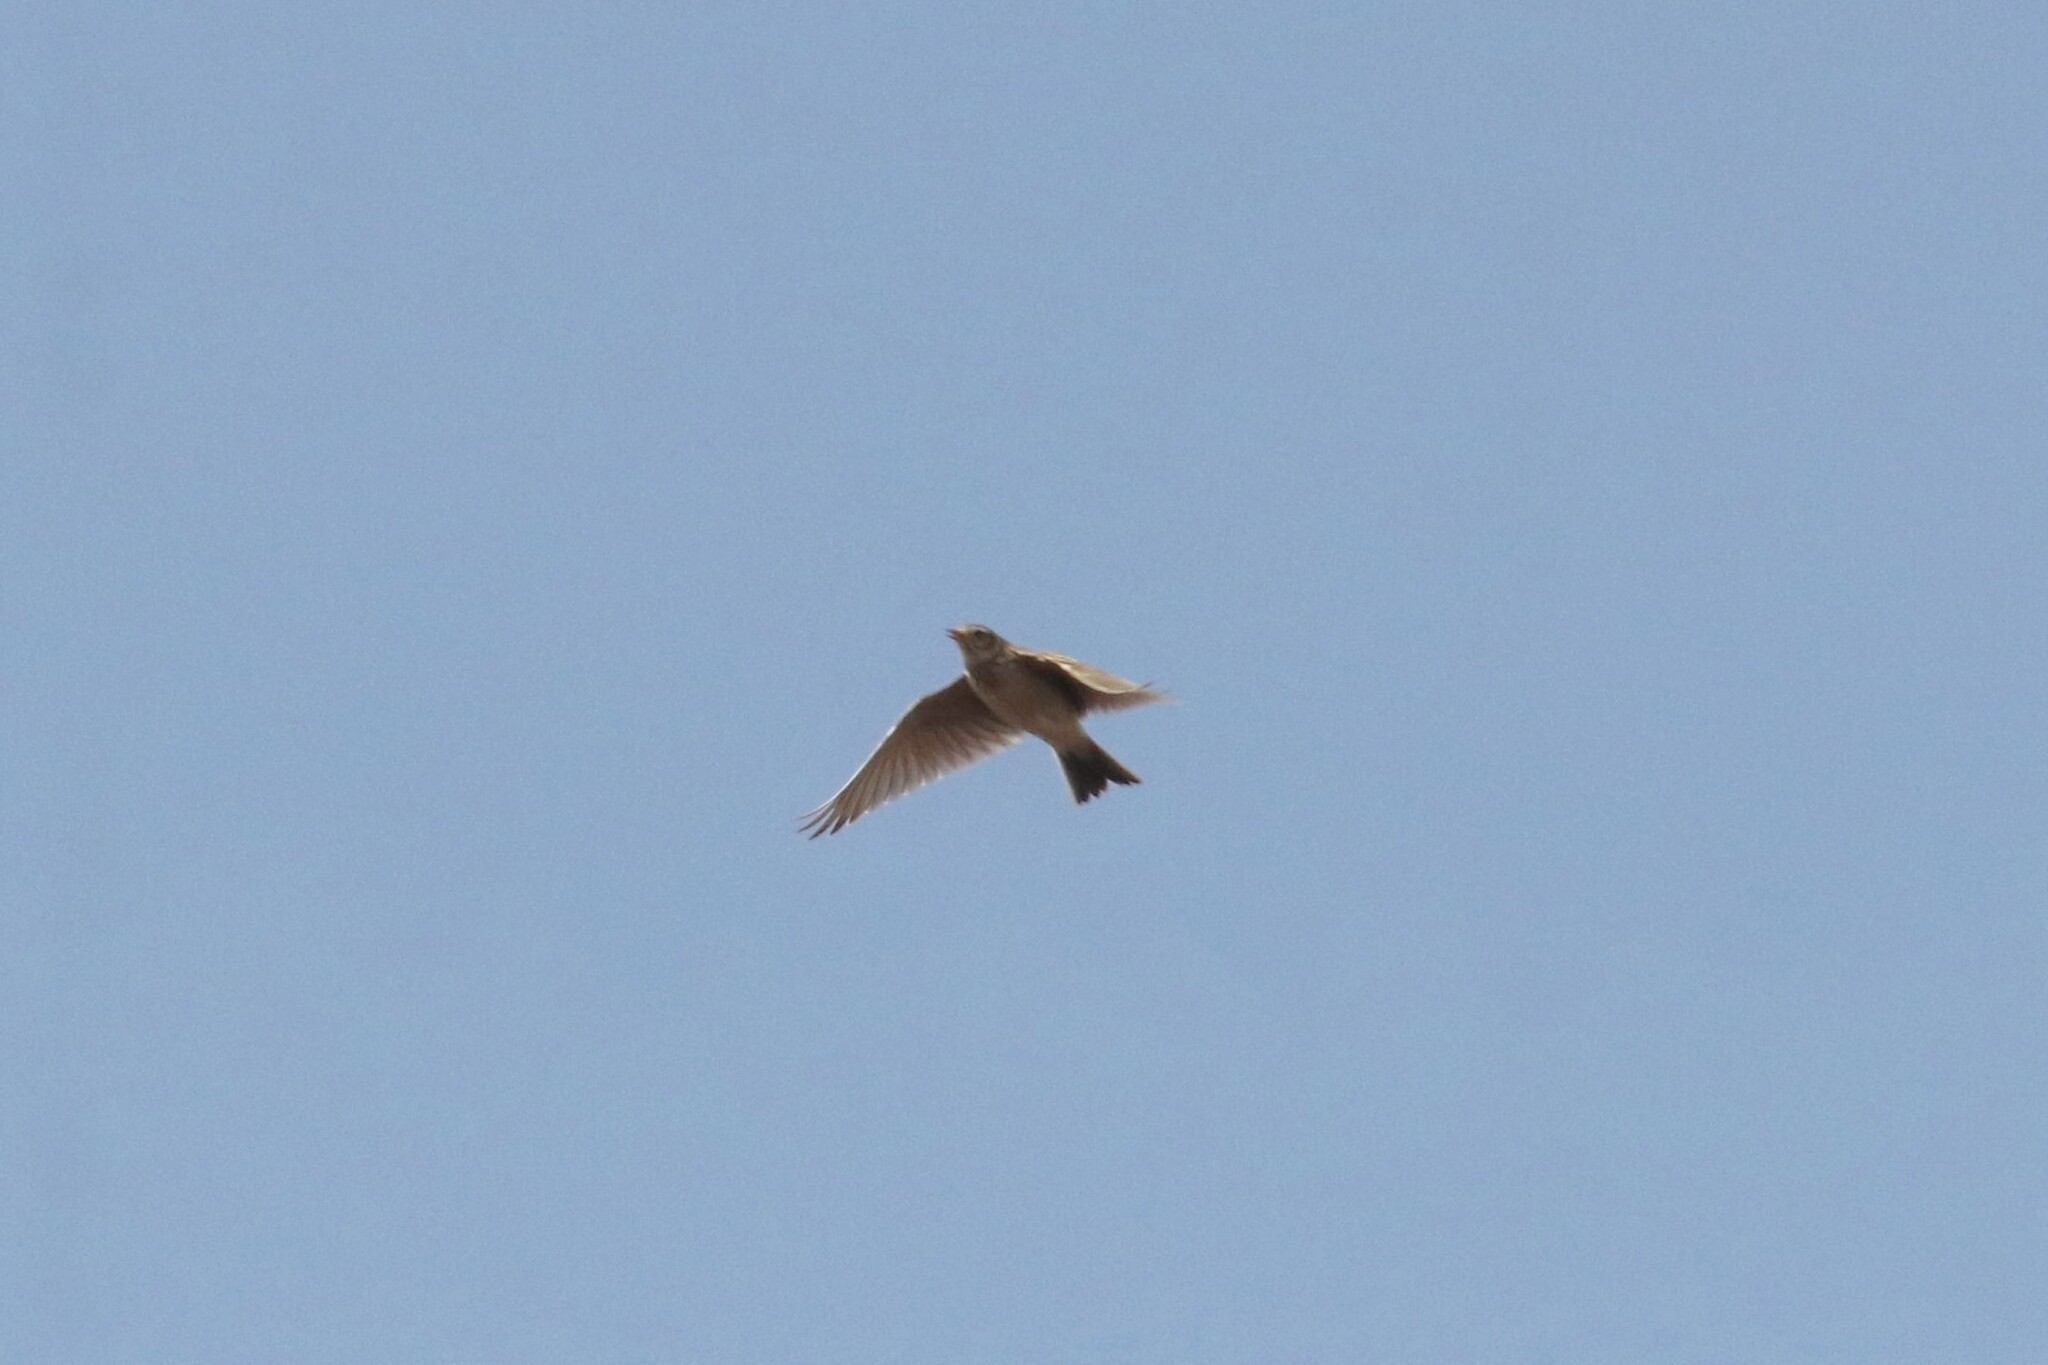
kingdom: Animalia
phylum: Chordata
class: Aves
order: Passeriformes
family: Alaudidae
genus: Alauda
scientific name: Alauda arvensis
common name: Eurasian skylark
